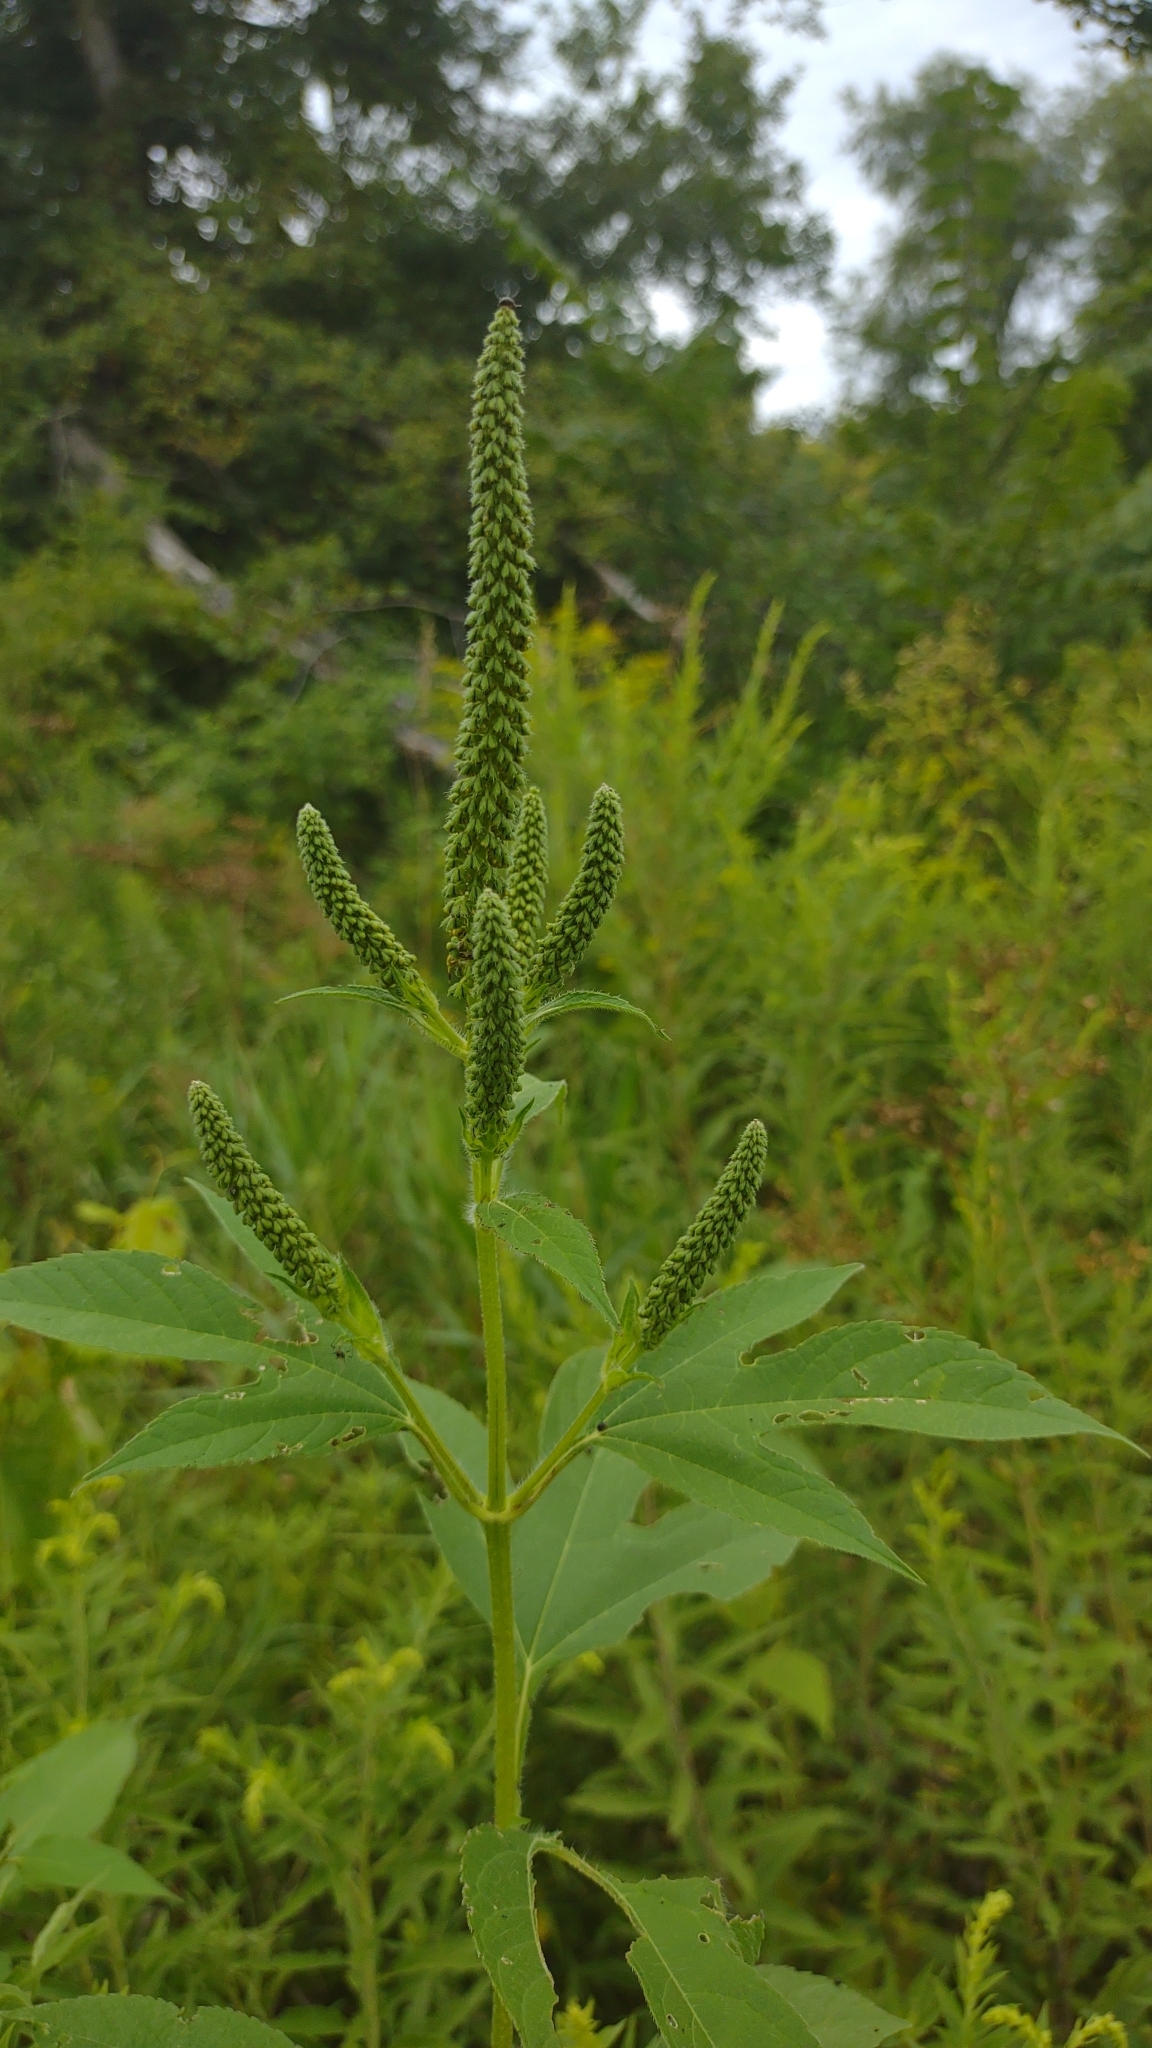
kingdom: Plantae
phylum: Tracheophyta
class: Magnoliopsida
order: Asterales
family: Asteraceae
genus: Ambrosia
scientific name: Ambrosia trifida
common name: Giant ragweed
